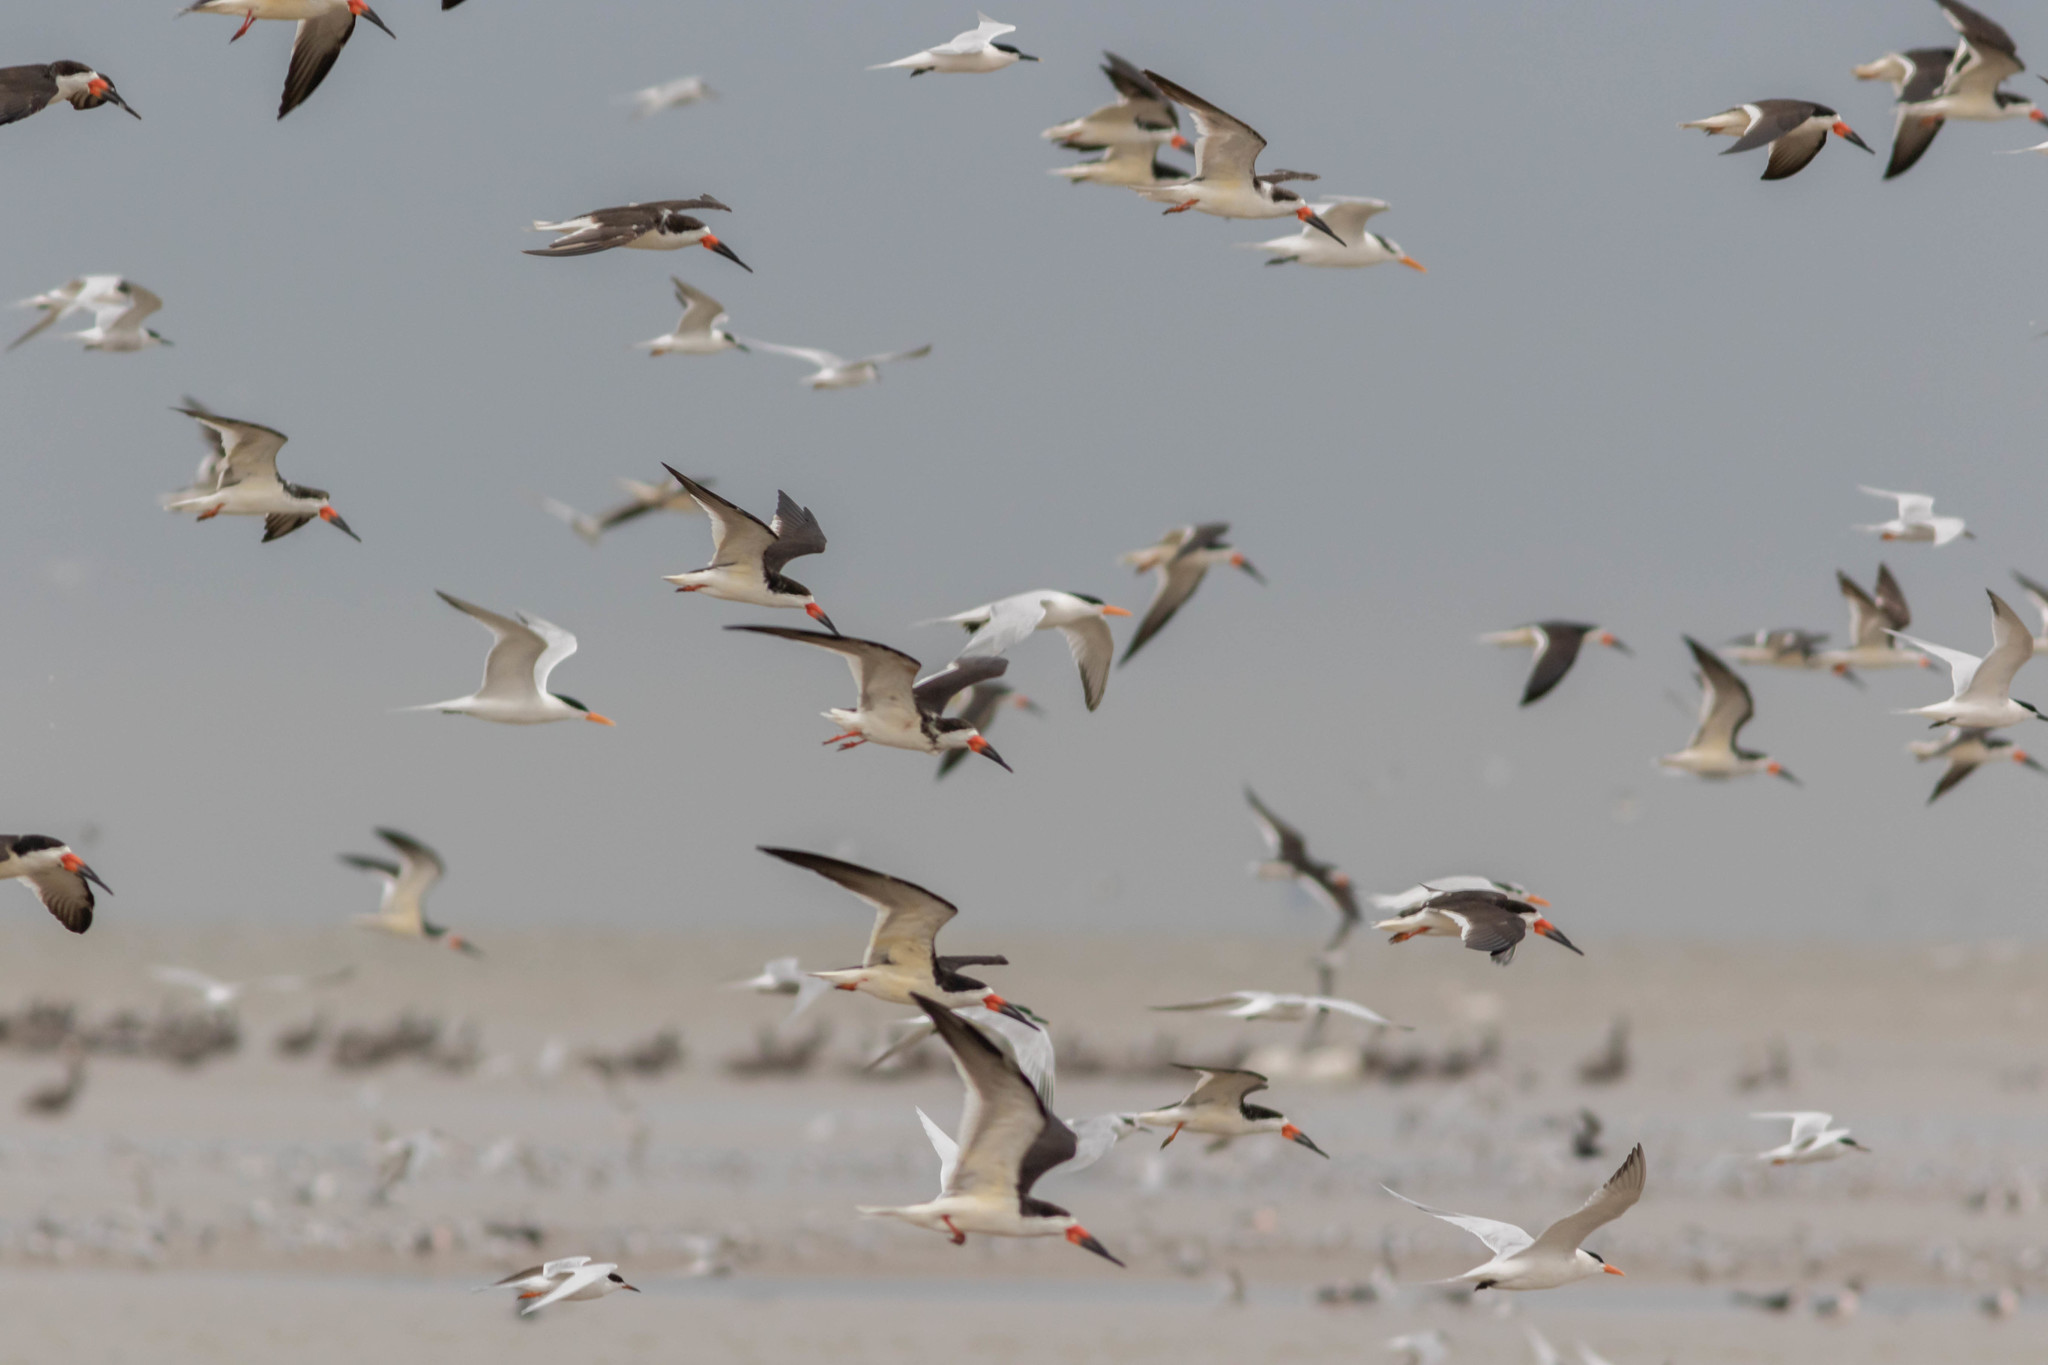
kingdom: Animalia
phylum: Chordata
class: Aves
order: Charadriiformes
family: Laridae
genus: Rynchops
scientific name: Rynchops niger
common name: Black skimmer
